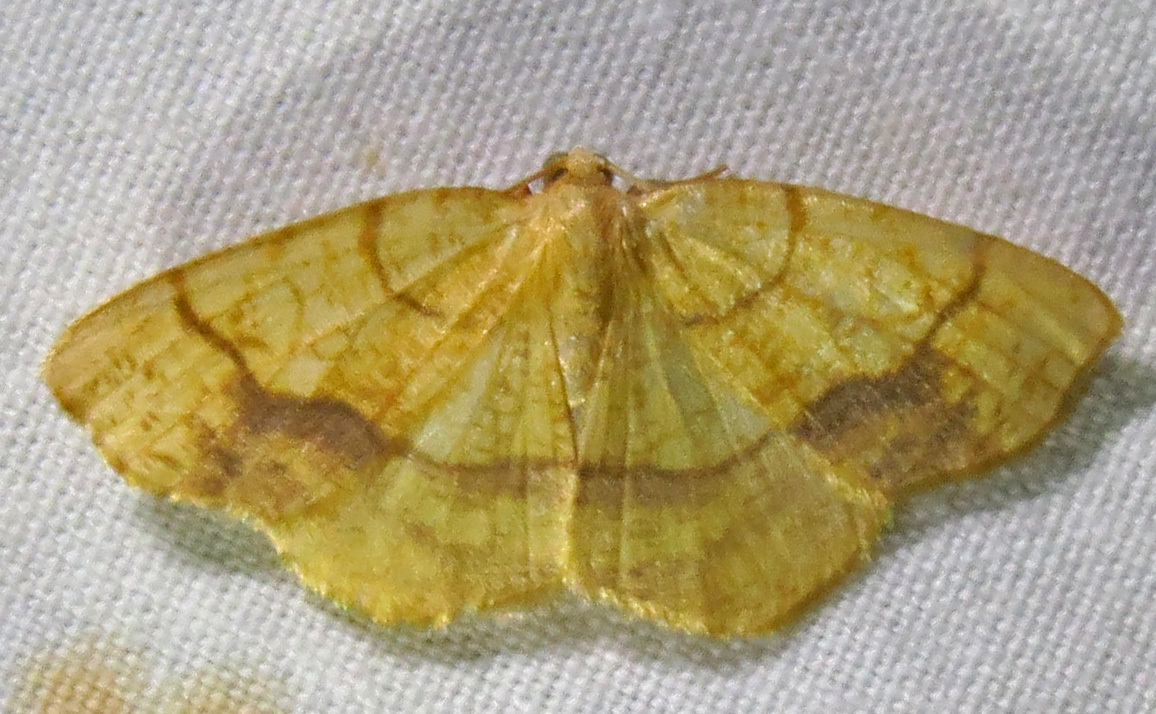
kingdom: Animalia
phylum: Arthropoda
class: Insecta
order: Lepidoptera
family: Geometridae
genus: Nematocampa
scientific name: Nematocampa resistaria
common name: Horned spanworm moth
